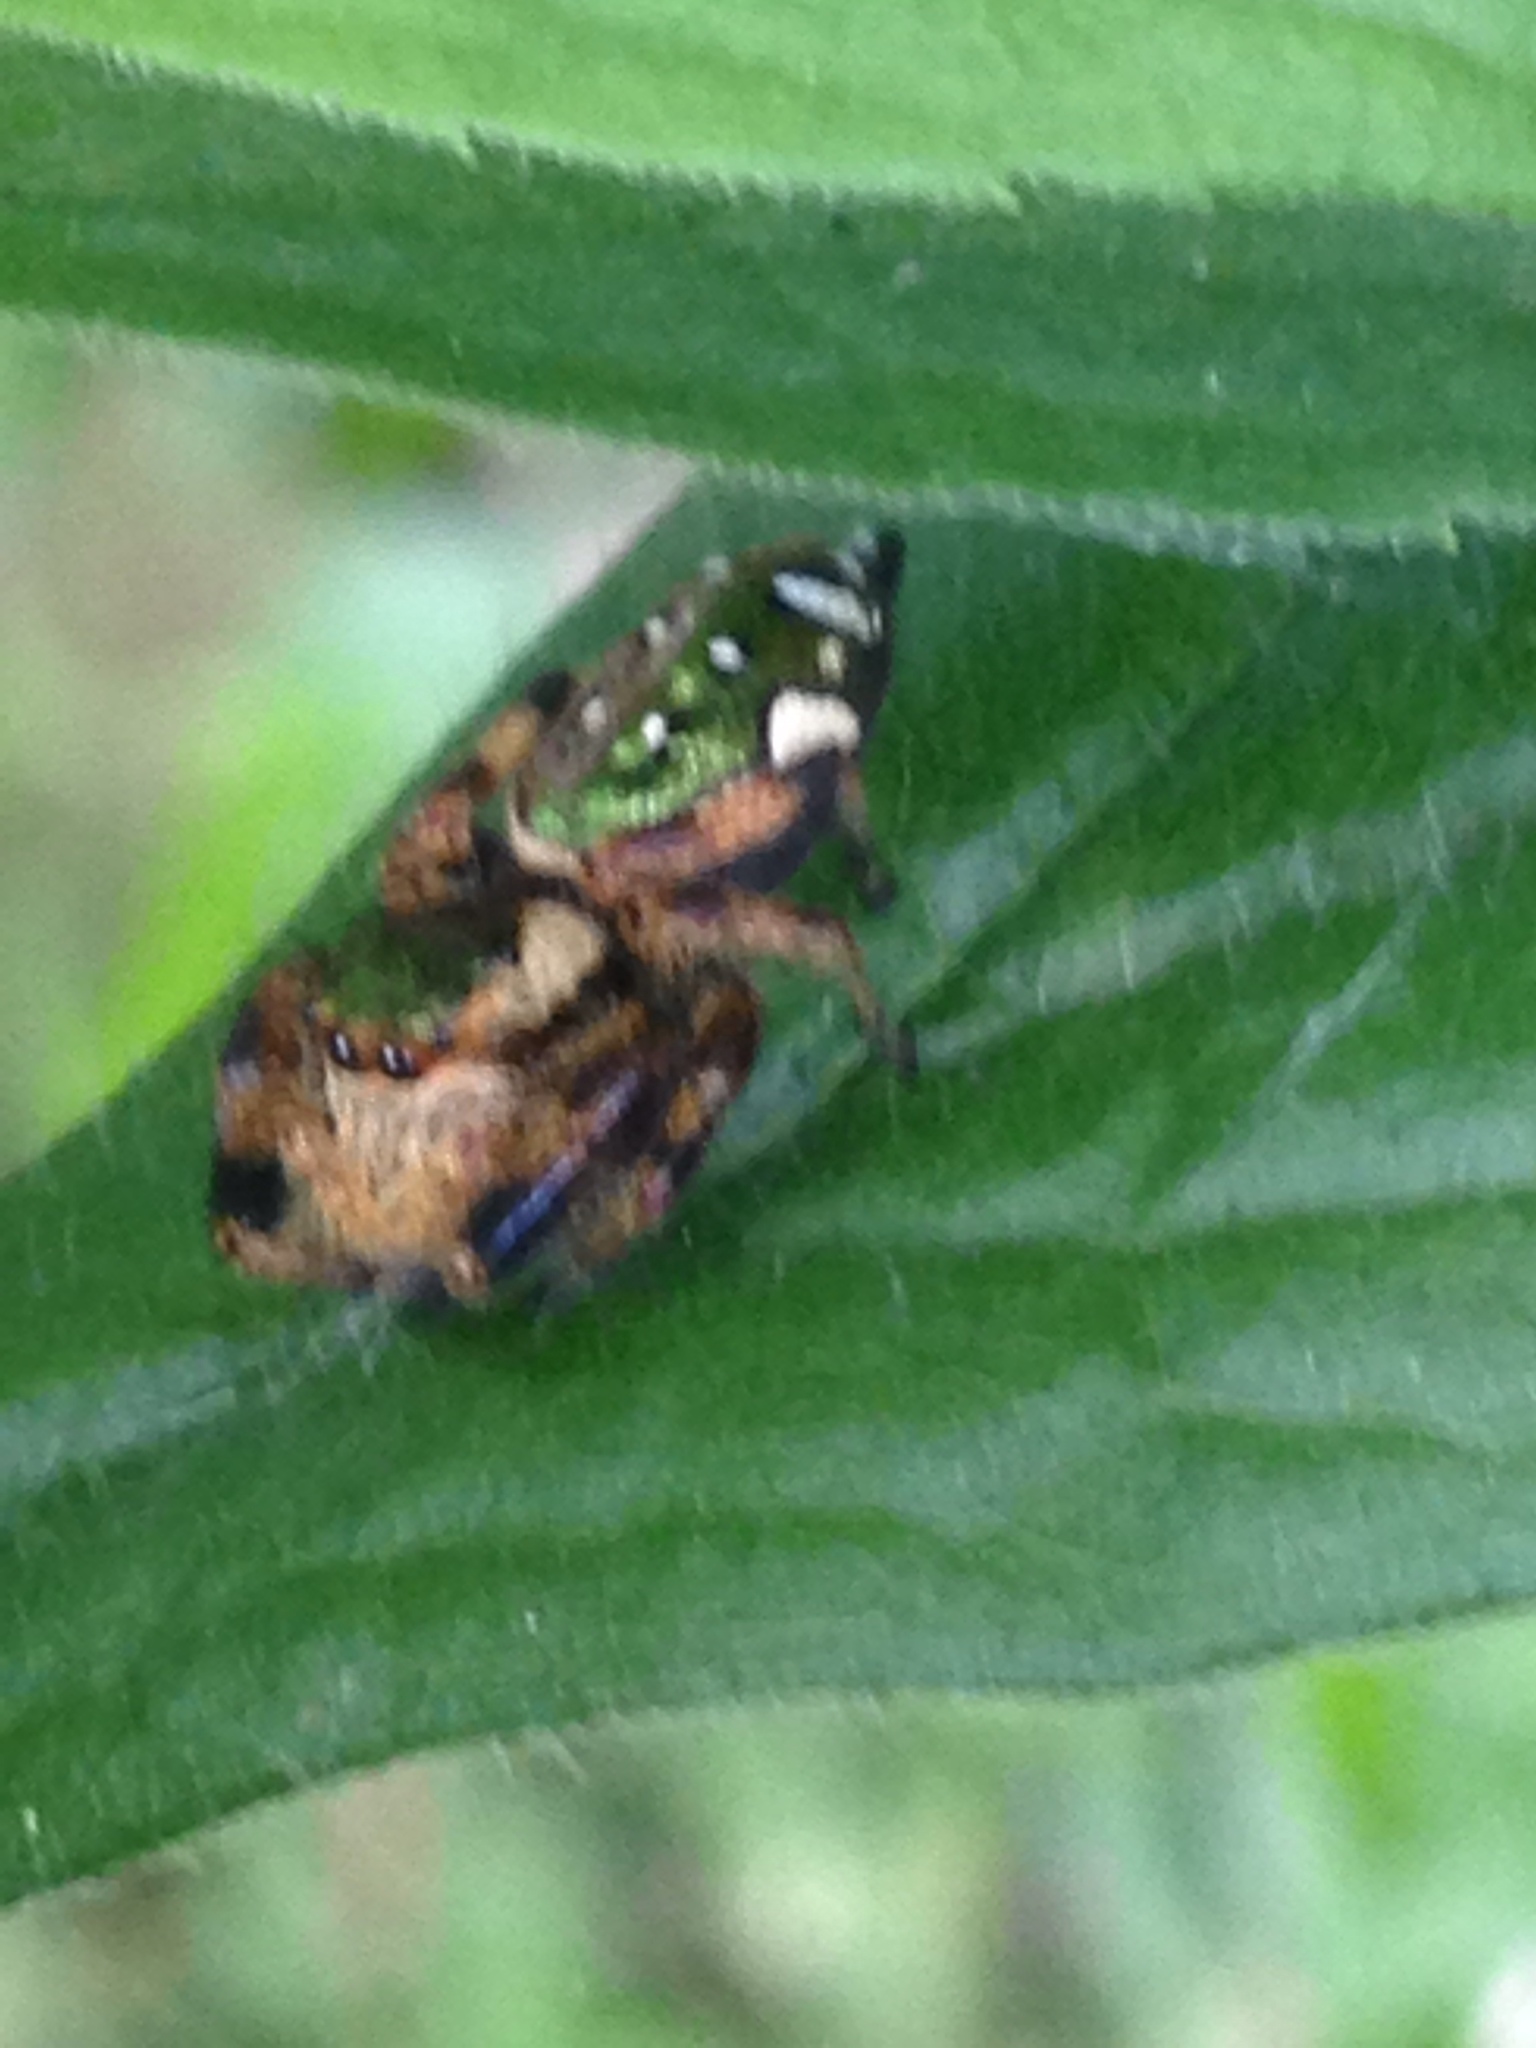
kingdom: Animalia
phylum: Arthropoda
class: Arachnida
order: Araneae
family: Salticidae
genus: Paraphidippus
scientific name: Paraphidippus aurantius
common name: Jumping spiders
